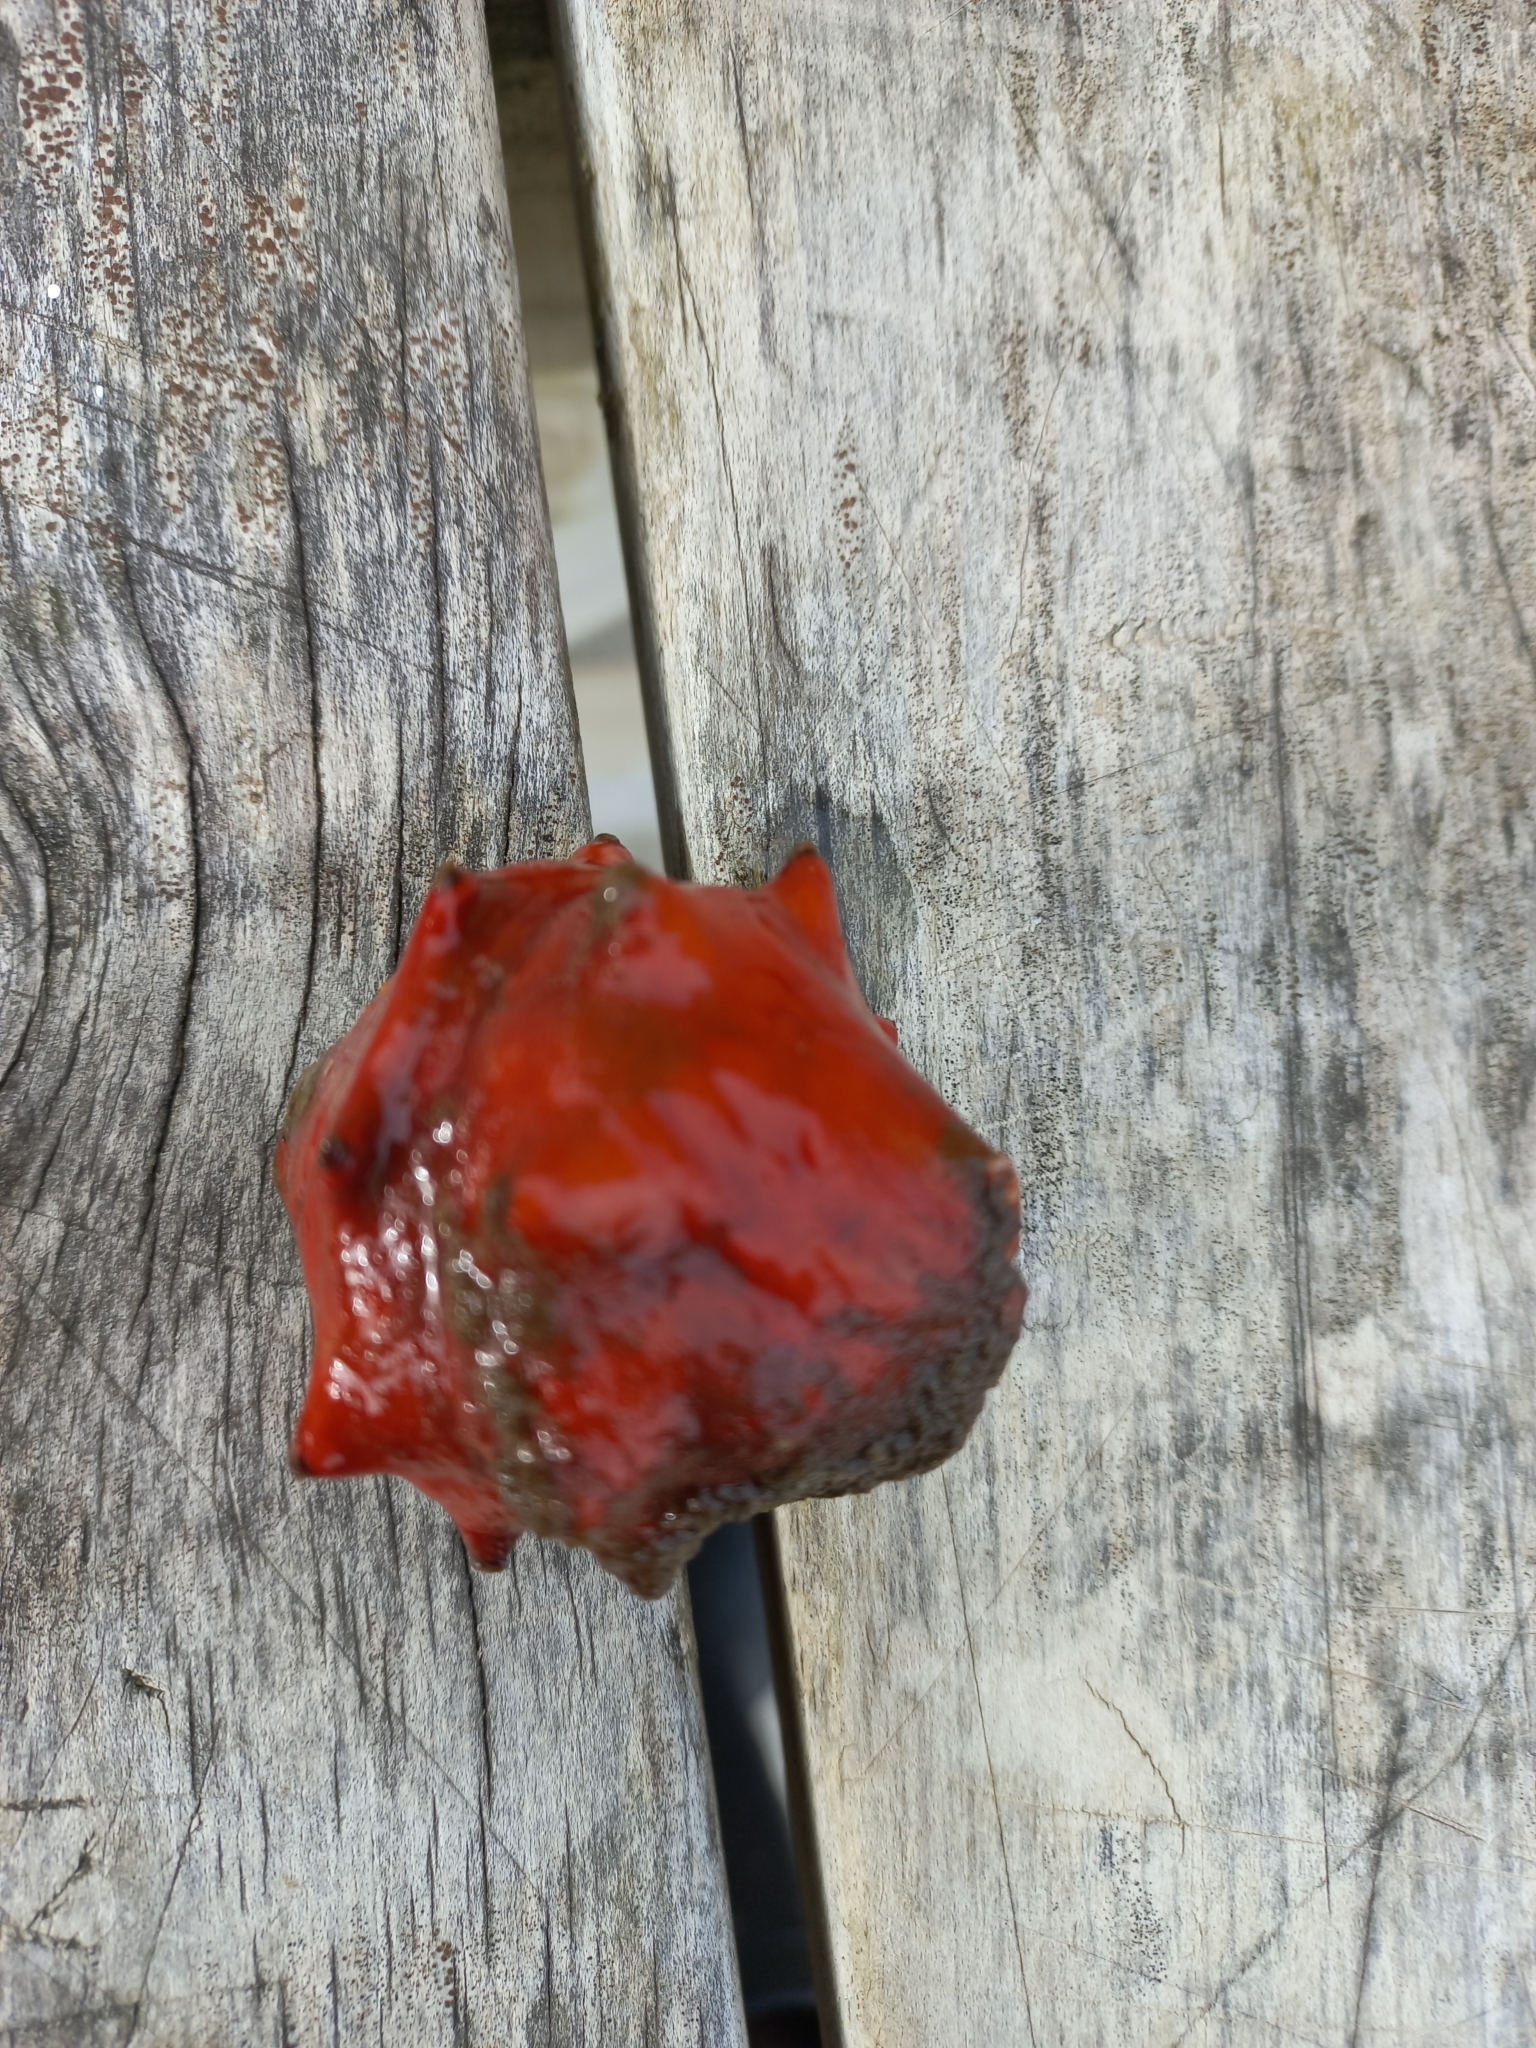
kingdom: Animalia
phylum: Mollusca
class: Polyplacophora
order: Chitonida
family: Acanthochitonidae
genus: Cryptoconchus
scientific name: Cryptoconchus porosus
